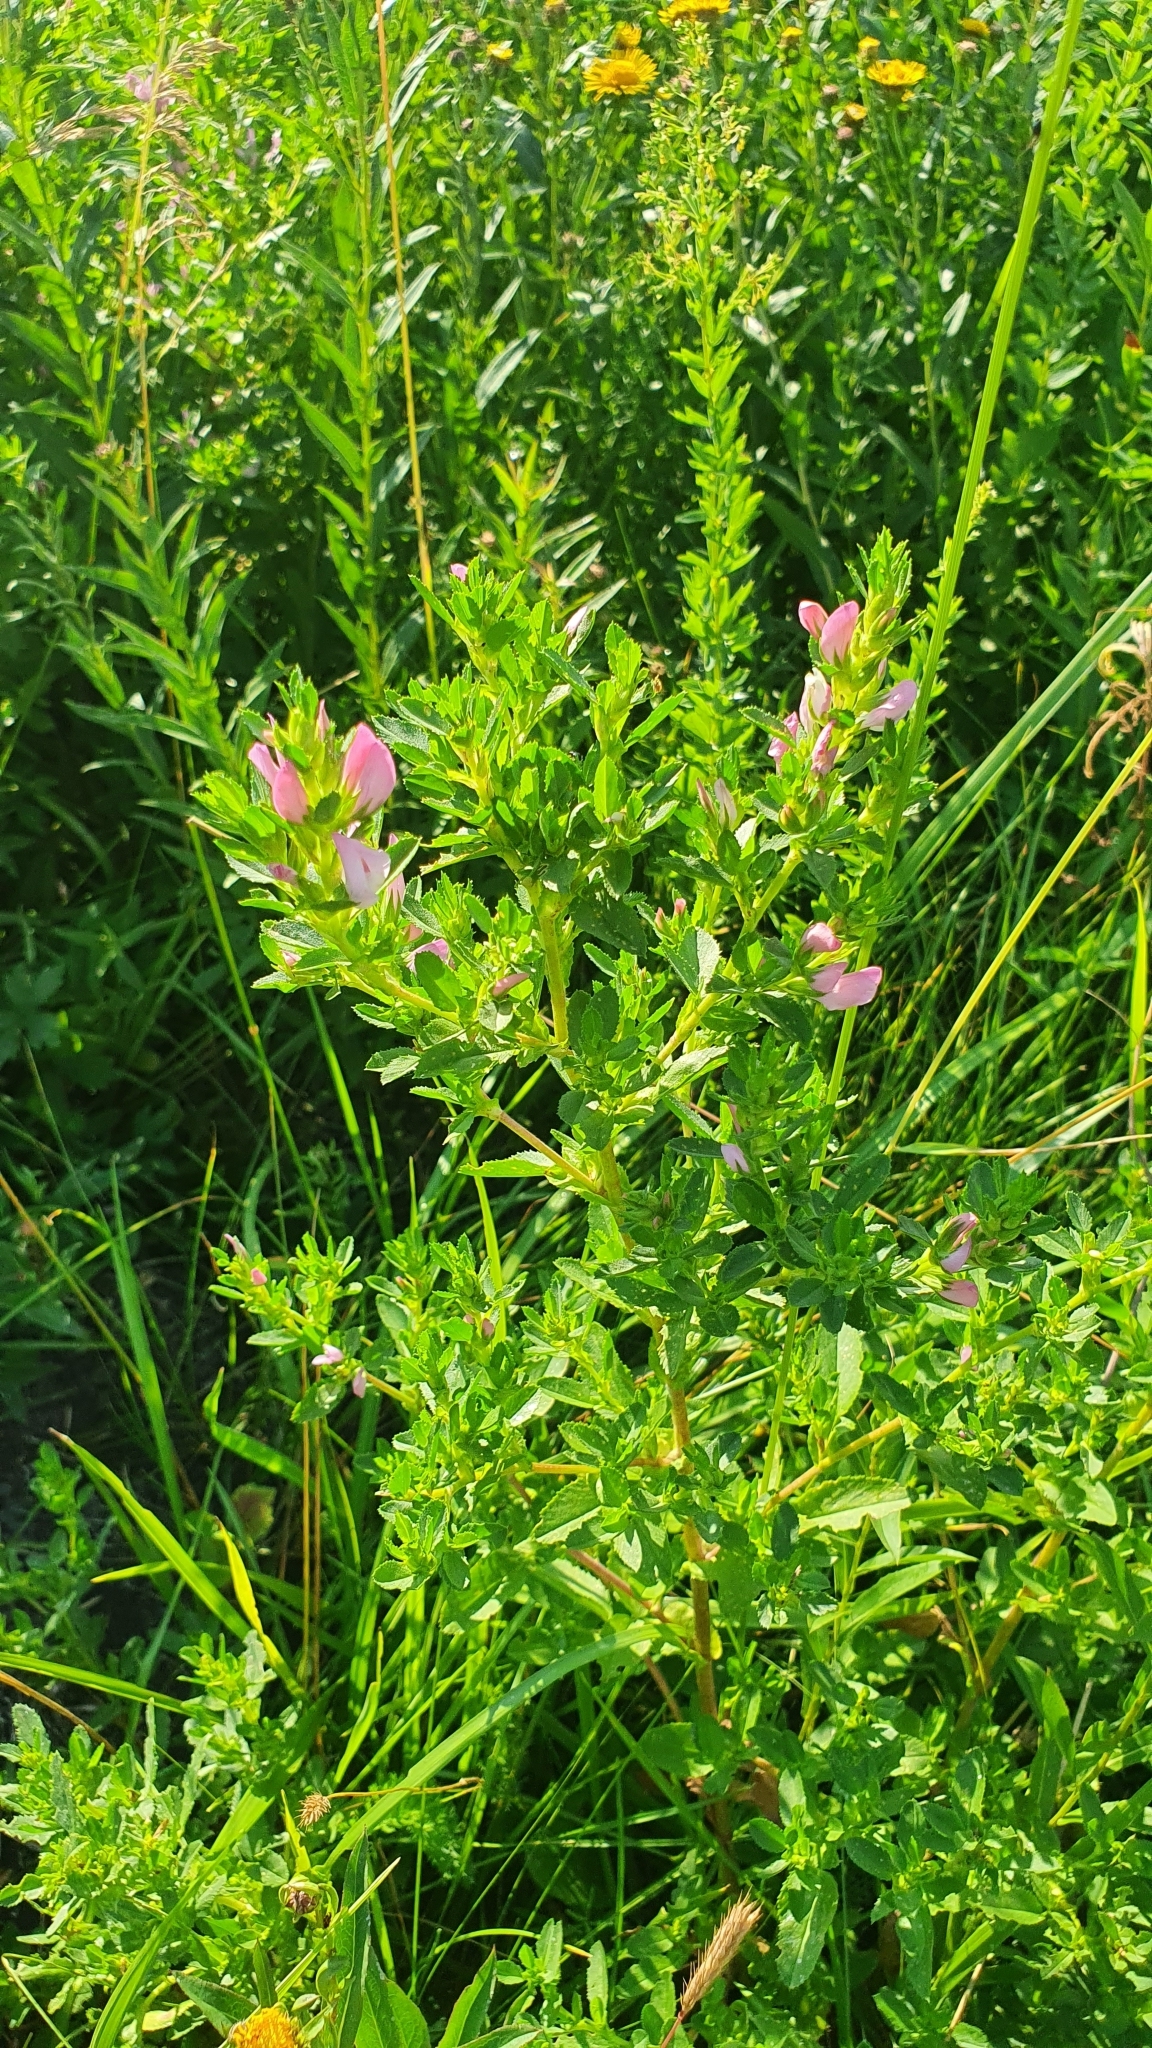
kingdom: Plantae
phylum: Tracheophyta
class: Magnoliopsida
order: Fabales
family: Fabaceae
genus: Ononis
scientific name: Ononis arvensis
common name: Field restharrow
